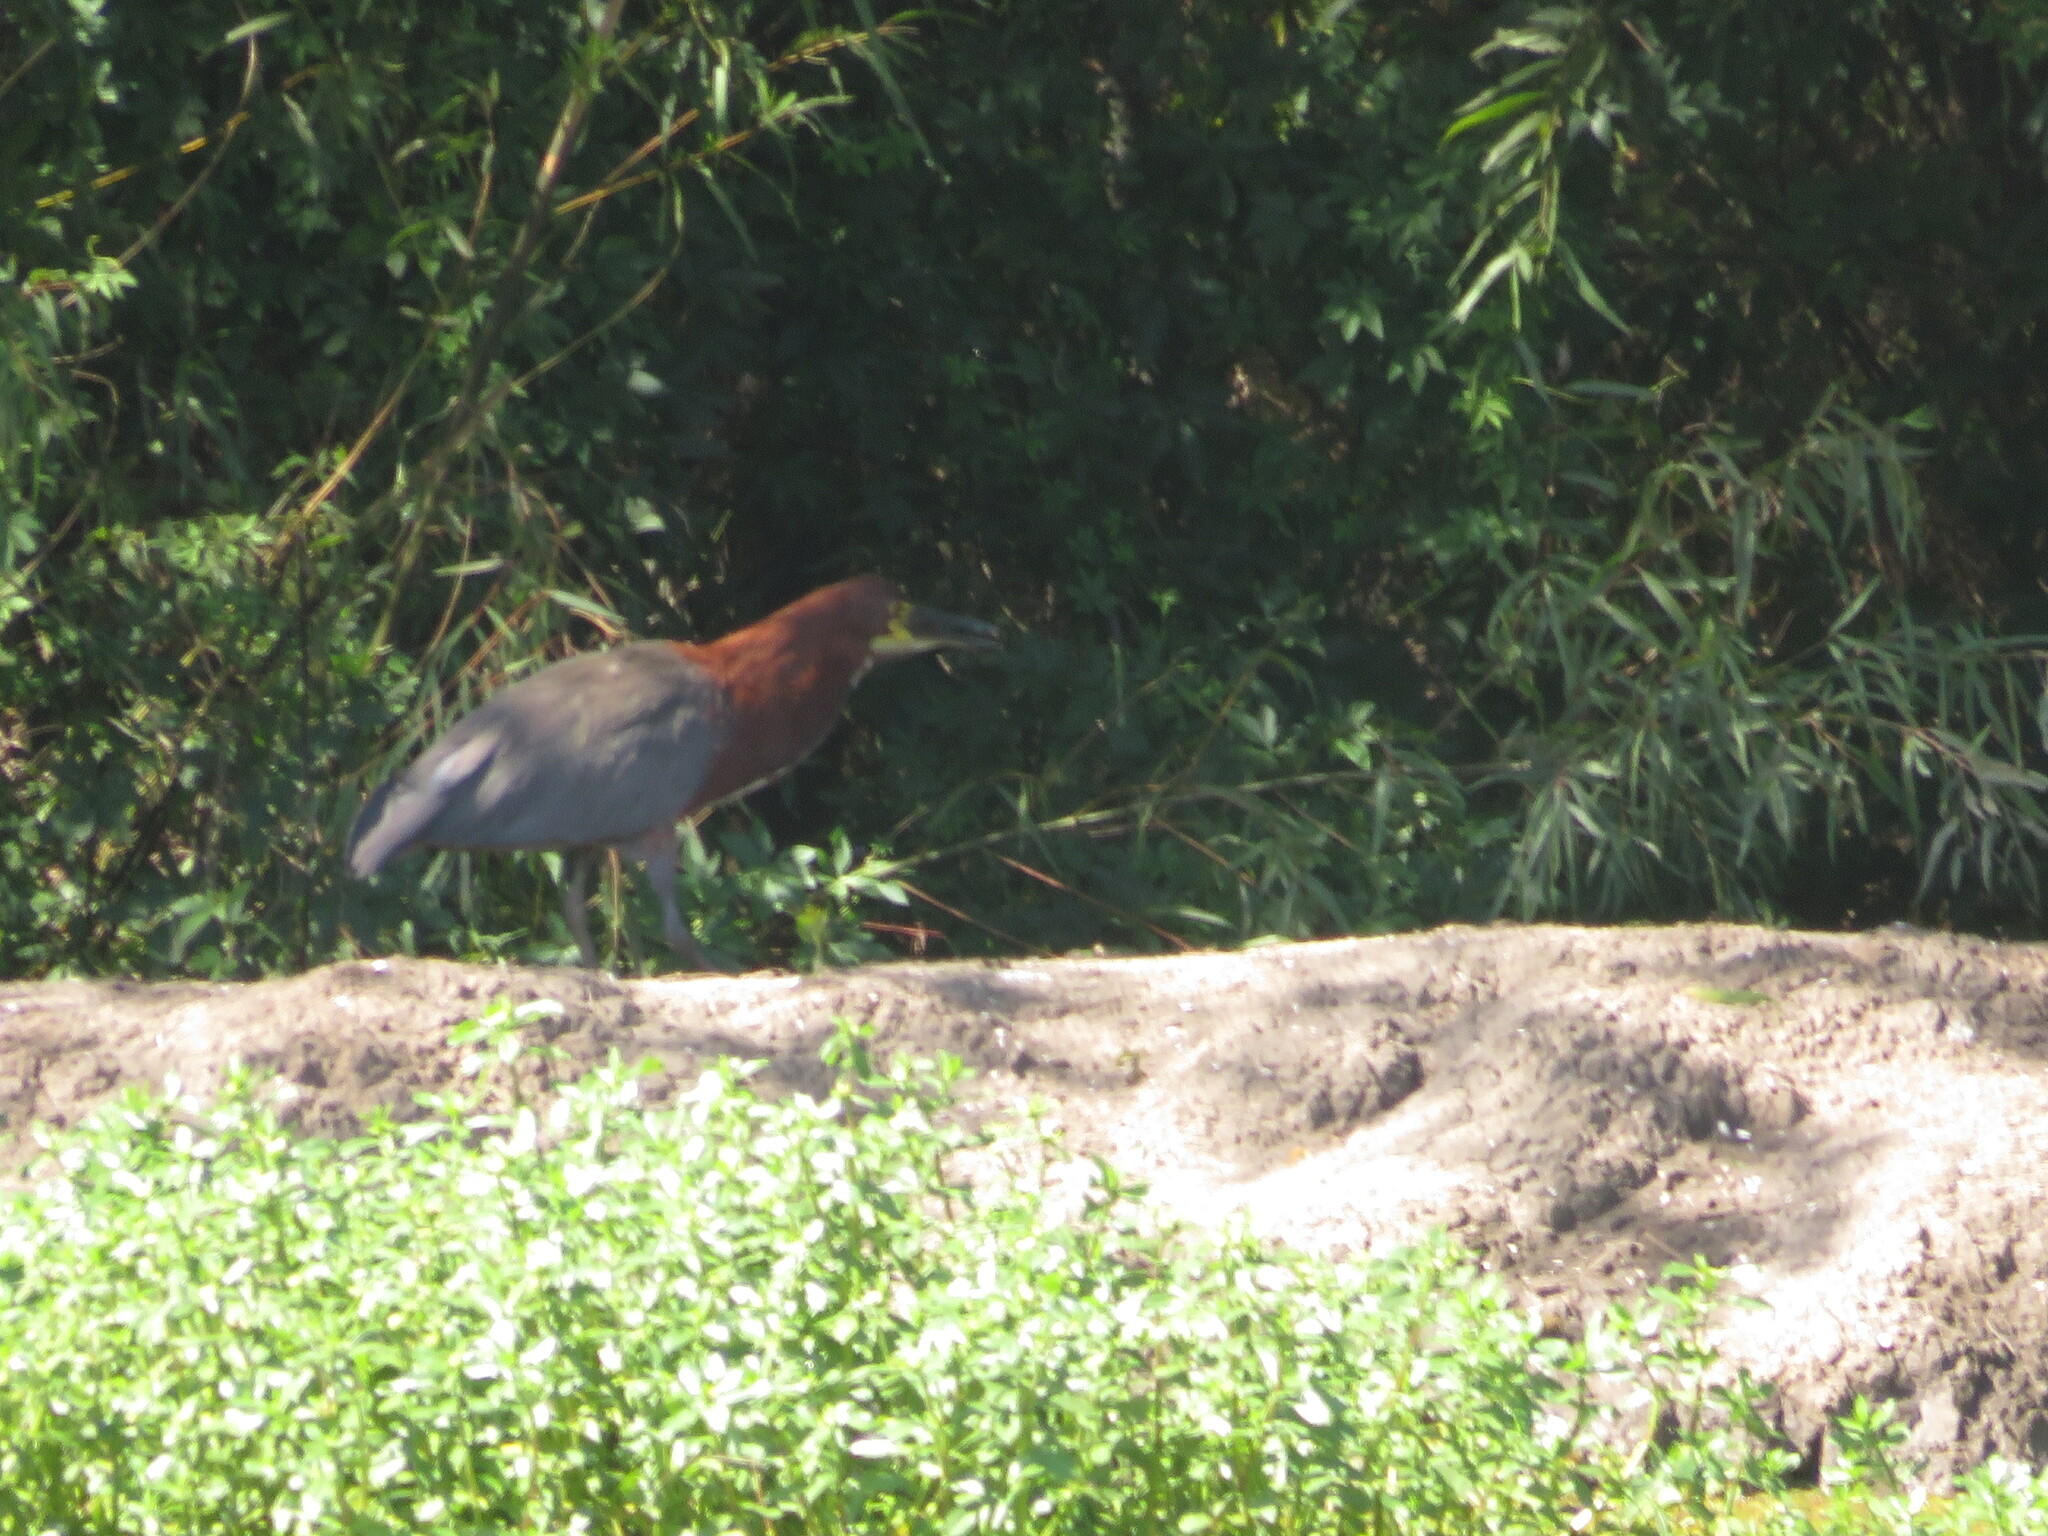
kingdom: Animalia
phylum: Chordata
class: Aves
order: Pelecaniformes
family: Ardeidae
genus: Tigrisoma
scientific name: Tigrisoma lineatum
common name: Rufescent tiger-heron
